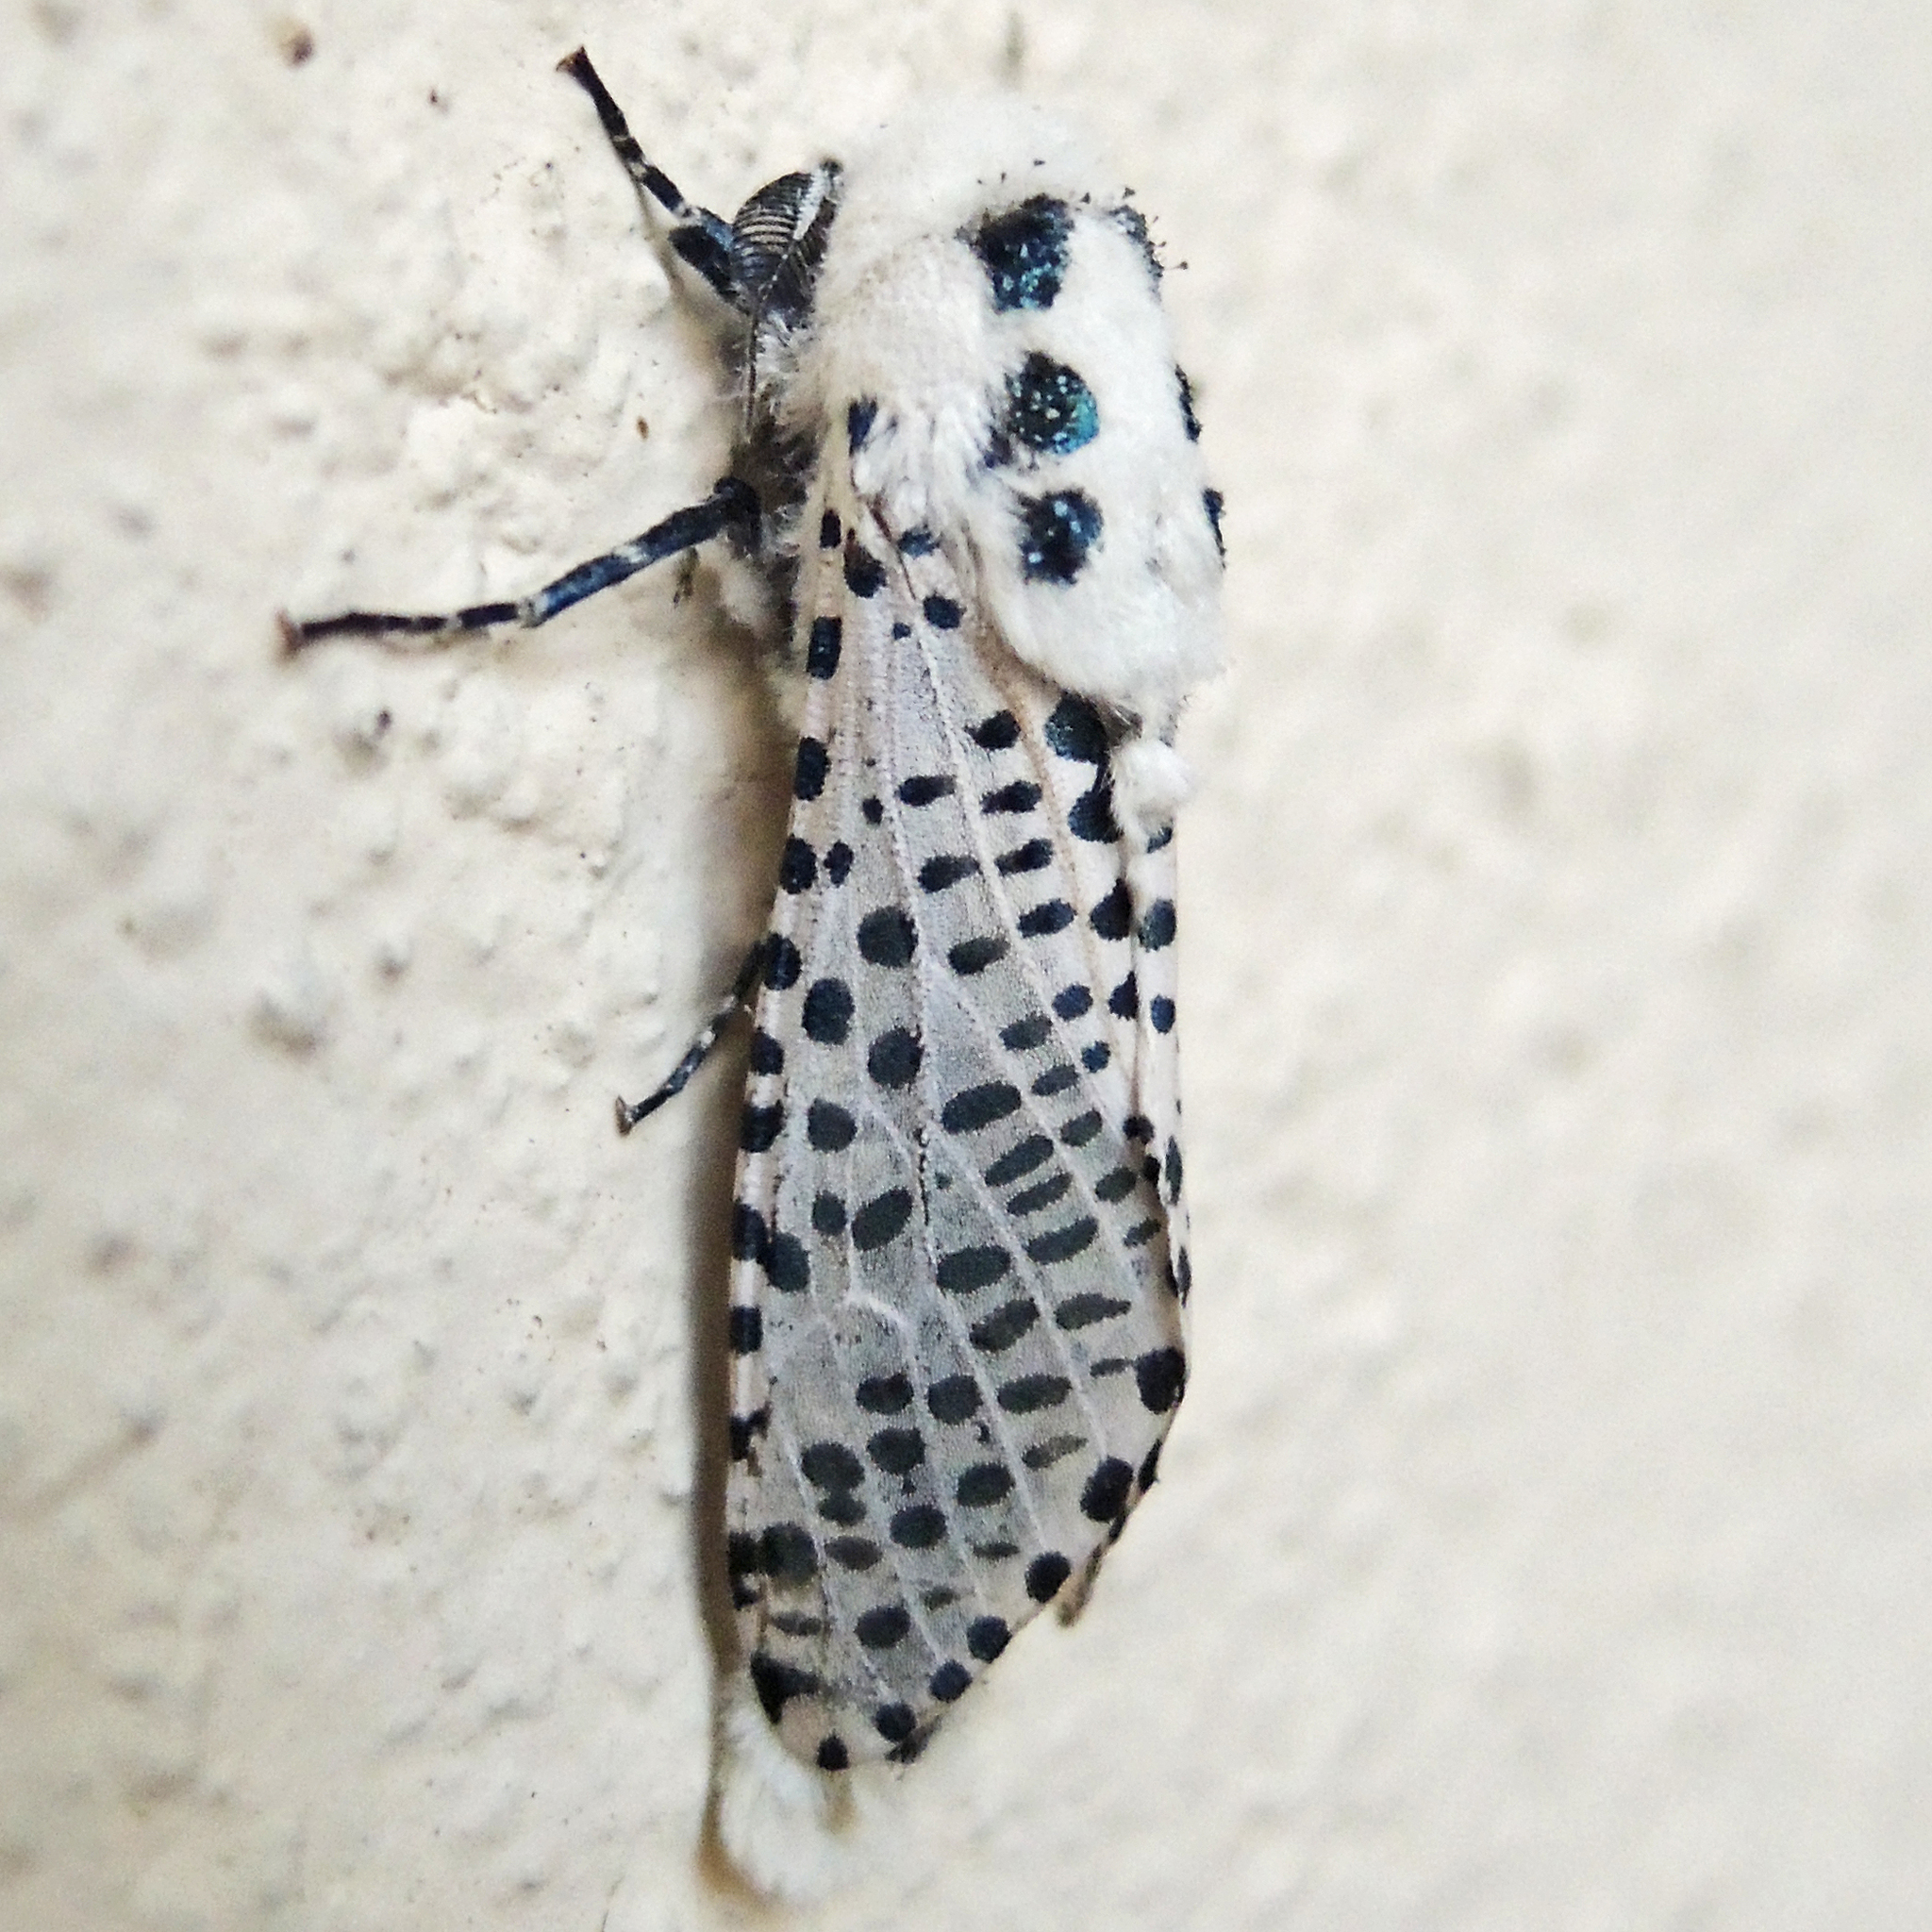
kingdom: Animalia
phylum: Arthropoda
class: Insecta
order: Lepidoptera
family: Cossidae
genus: Zeuzera
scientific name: Zeuzera pyrina
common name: Leopard moth
